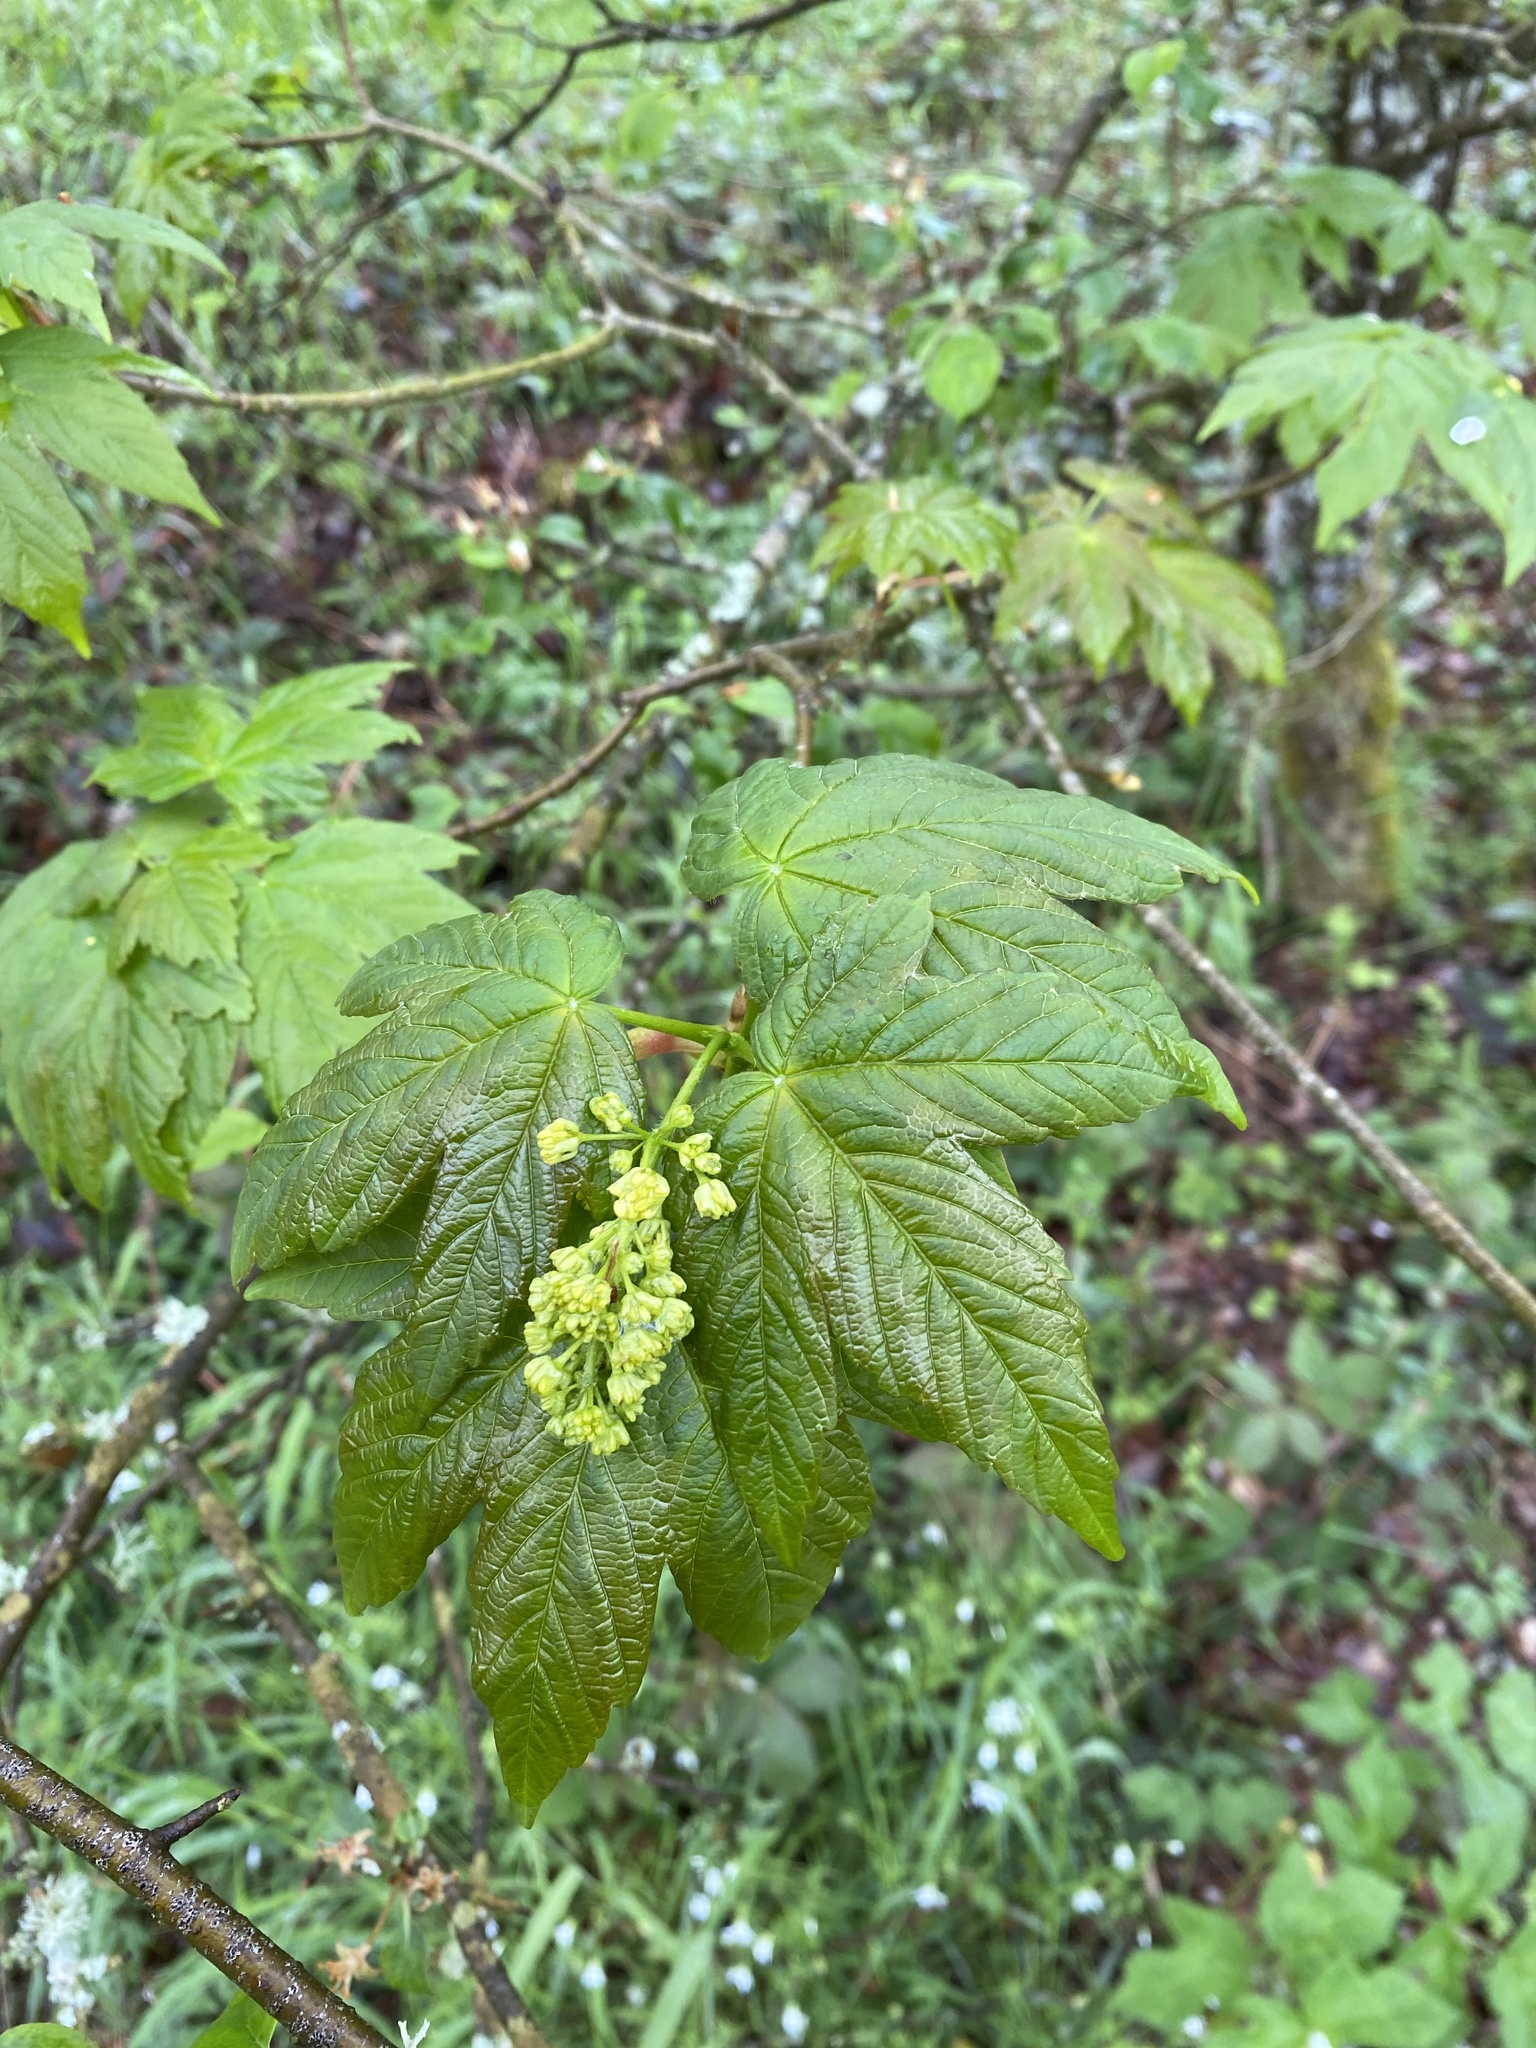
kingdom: Plantae
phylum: Tracheophyta
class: Magnoliopsida
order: Sapindales
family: Sapindaceae
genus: Acer
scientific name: Acer pseudoplatanus
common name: Sycamore
